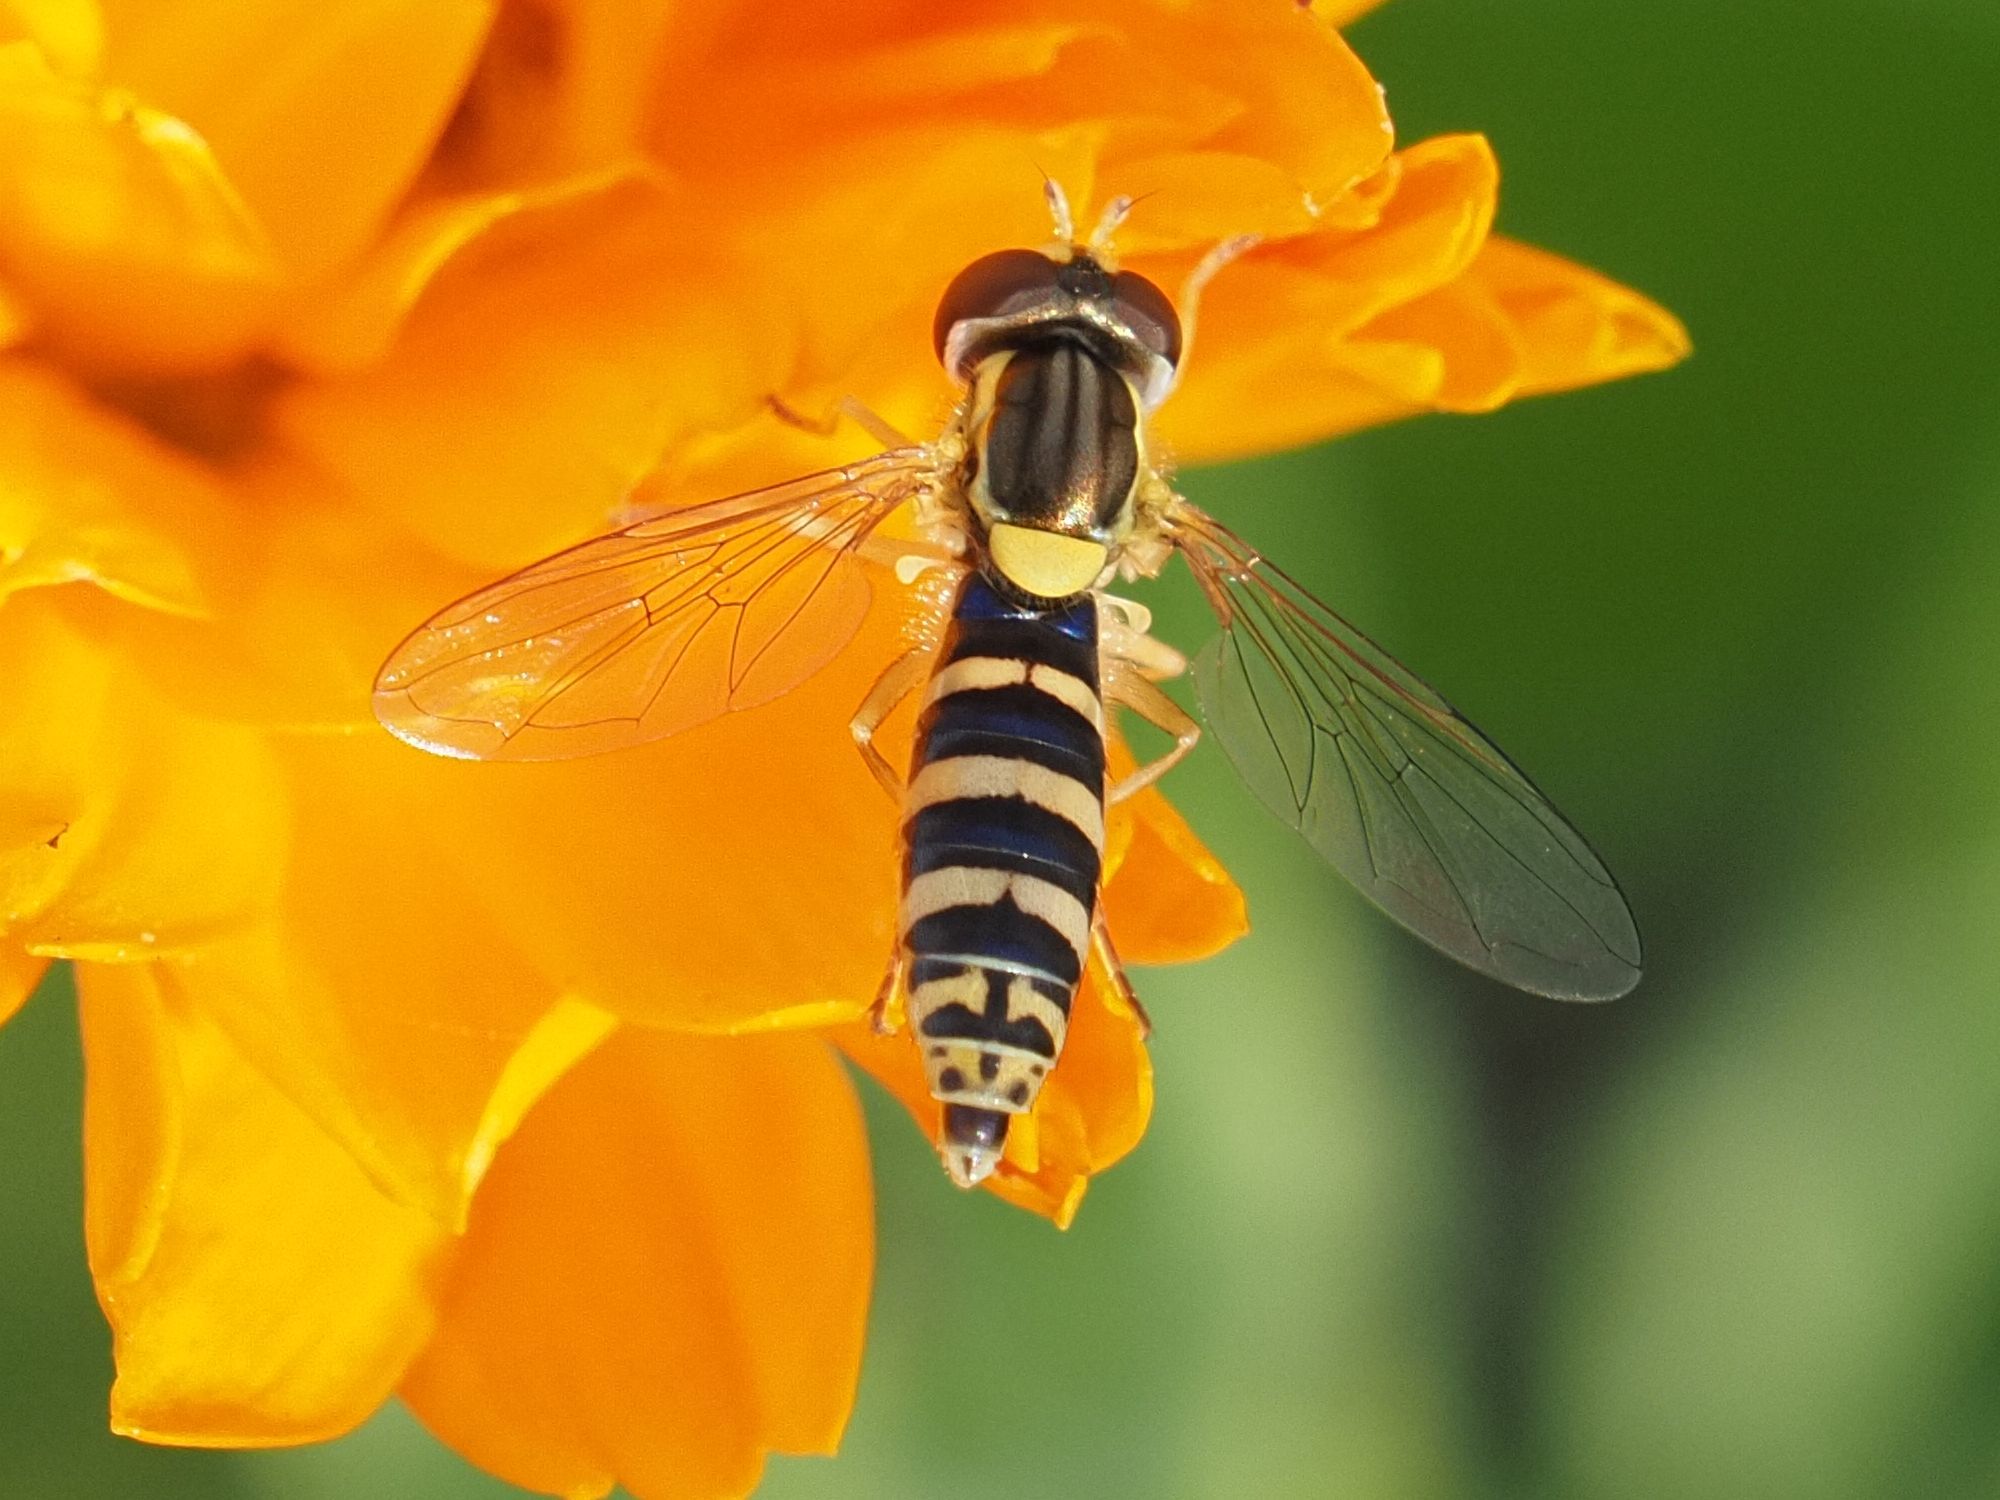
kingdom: Animalia
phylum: Arthropoda
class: Insecta
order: Diptera
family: Syrphidae
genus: Sphaerophoria
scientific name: Sphaerophoria
